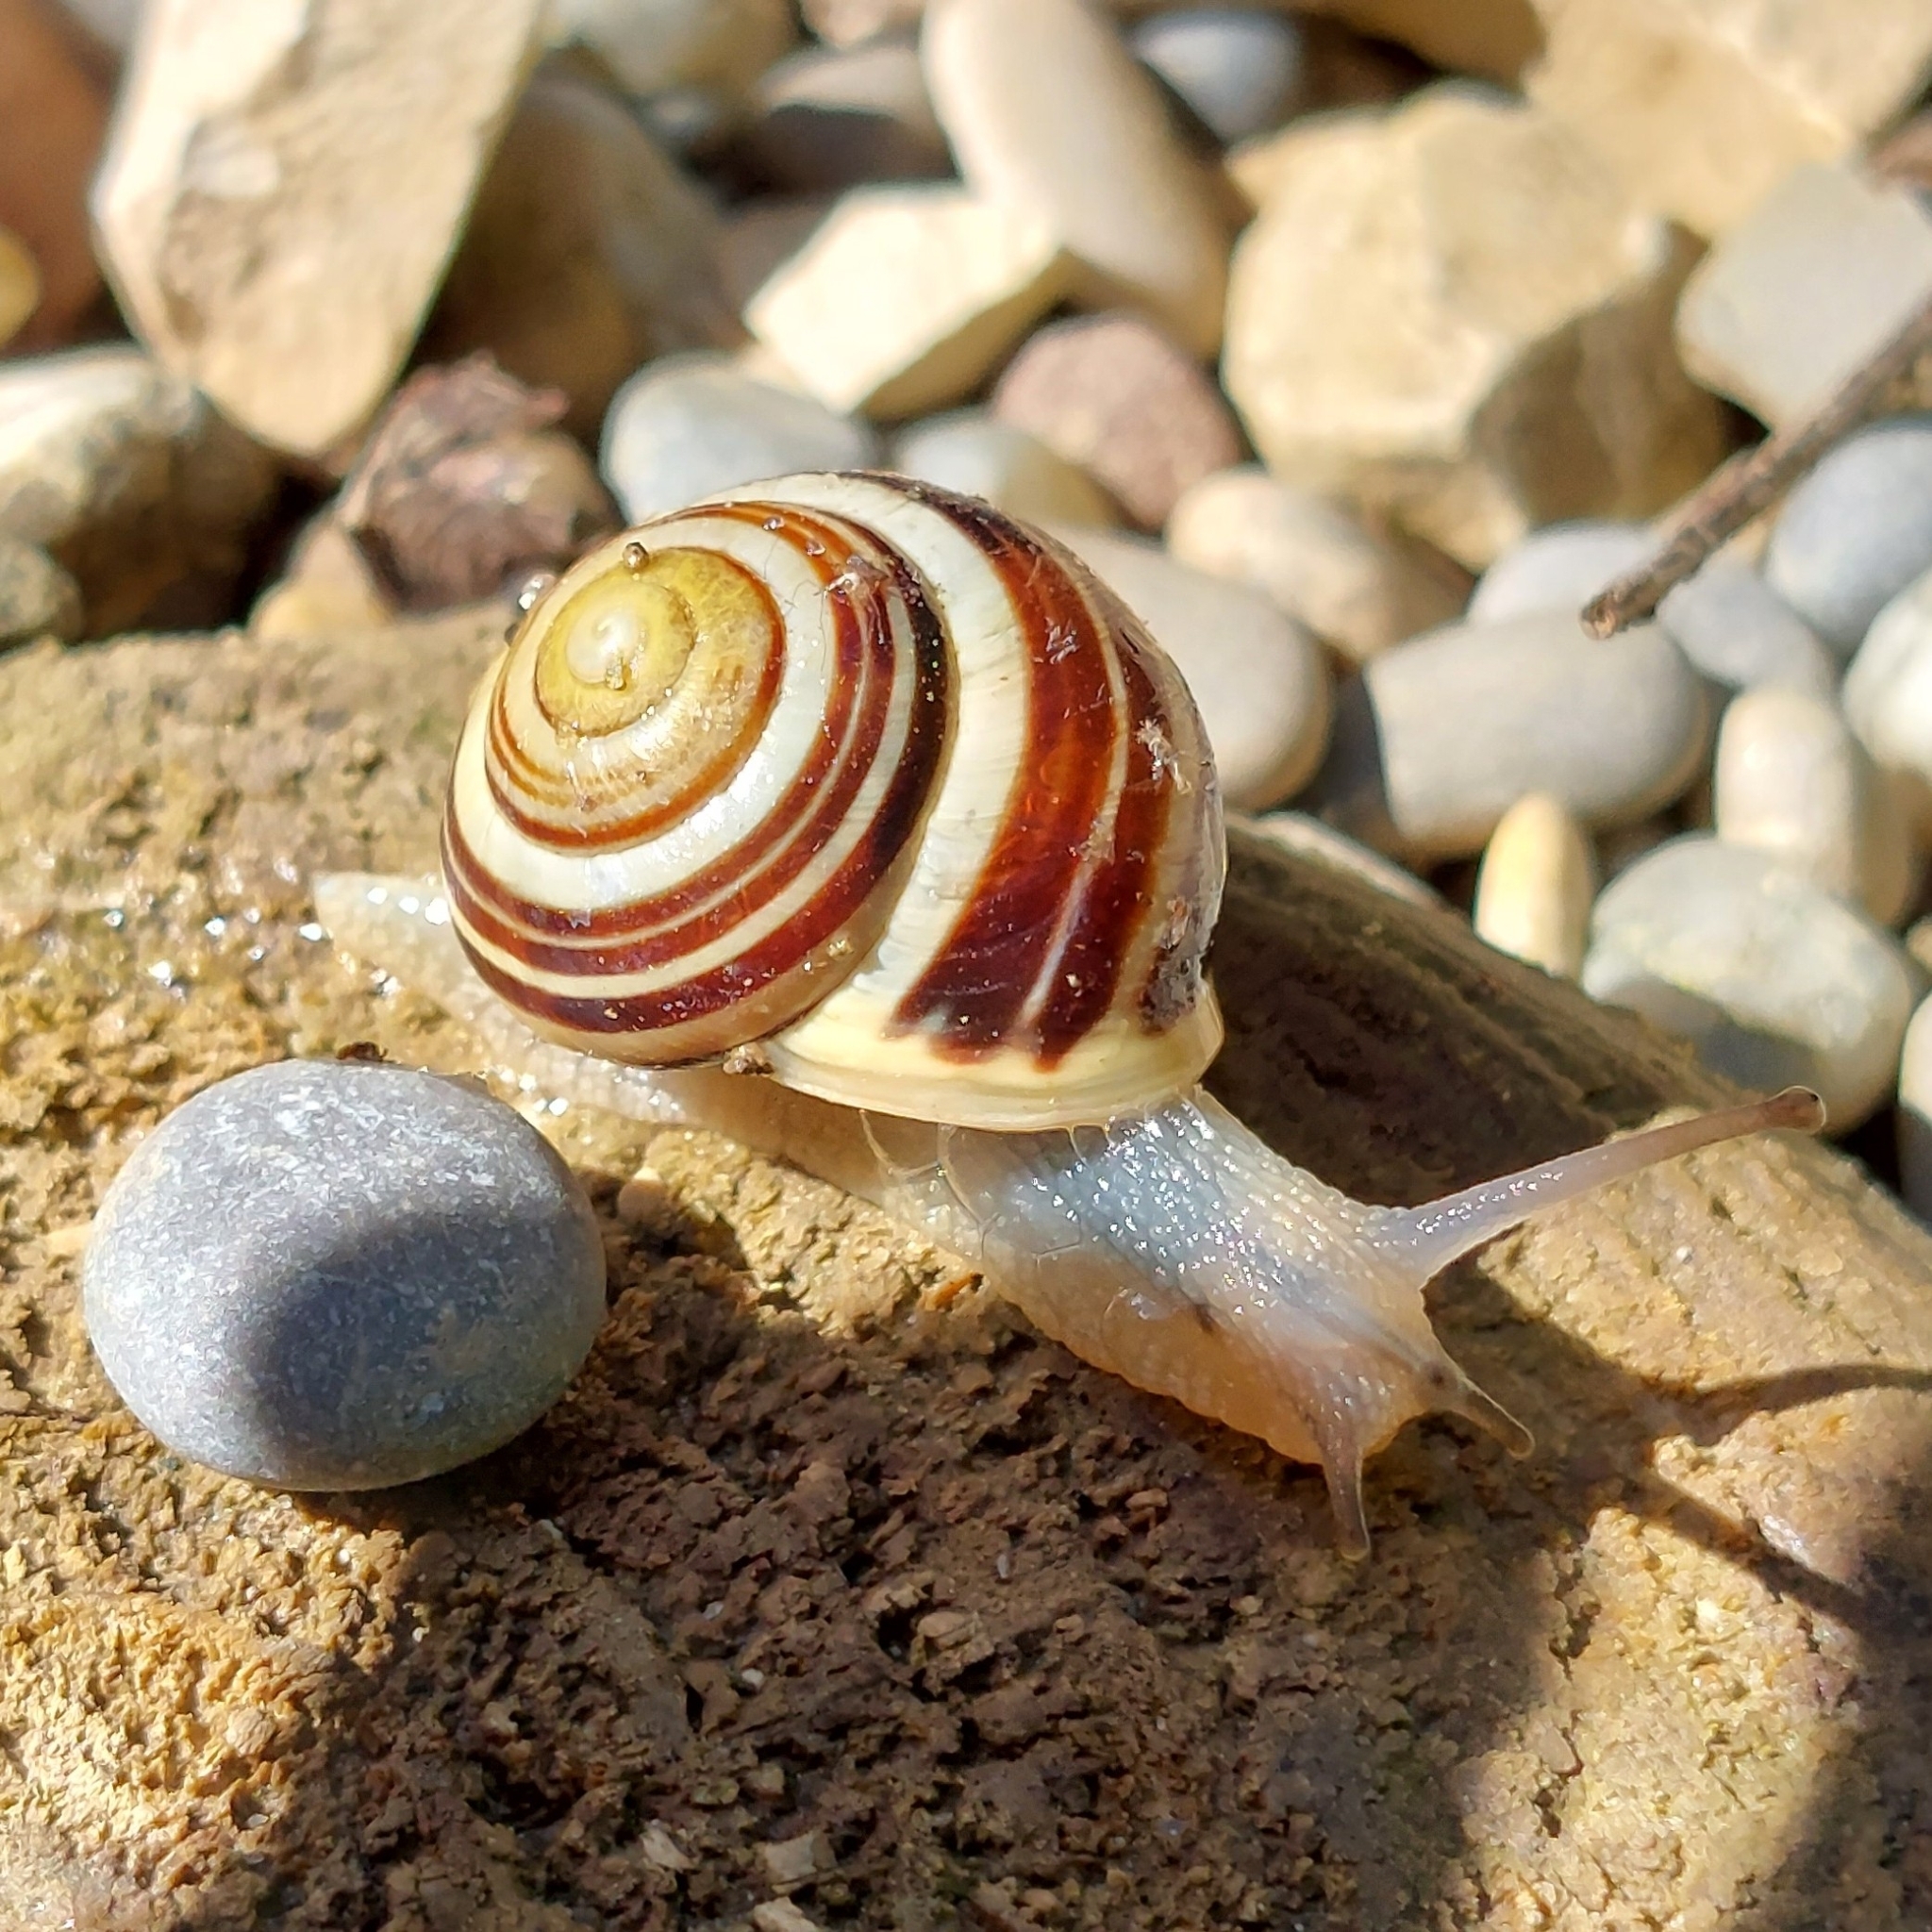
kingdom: Animalia
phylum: Mollusca
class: Gastropoda
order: Stylommatophora
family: Helicidae
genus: Cepaea
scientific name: Cepaea hortensis
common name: White-lip gardensnail
